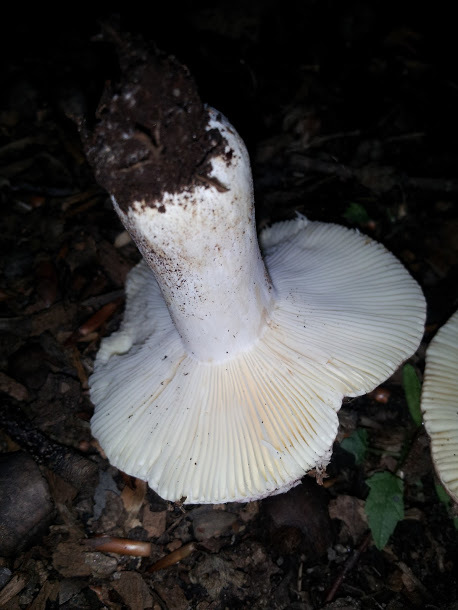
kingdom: Fungi
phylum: Basidiomycota
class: Agaricomycetes
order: Russulales
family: Russulaceae
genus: Russula
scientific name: Russula vinacea
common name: Blackish-red russula
